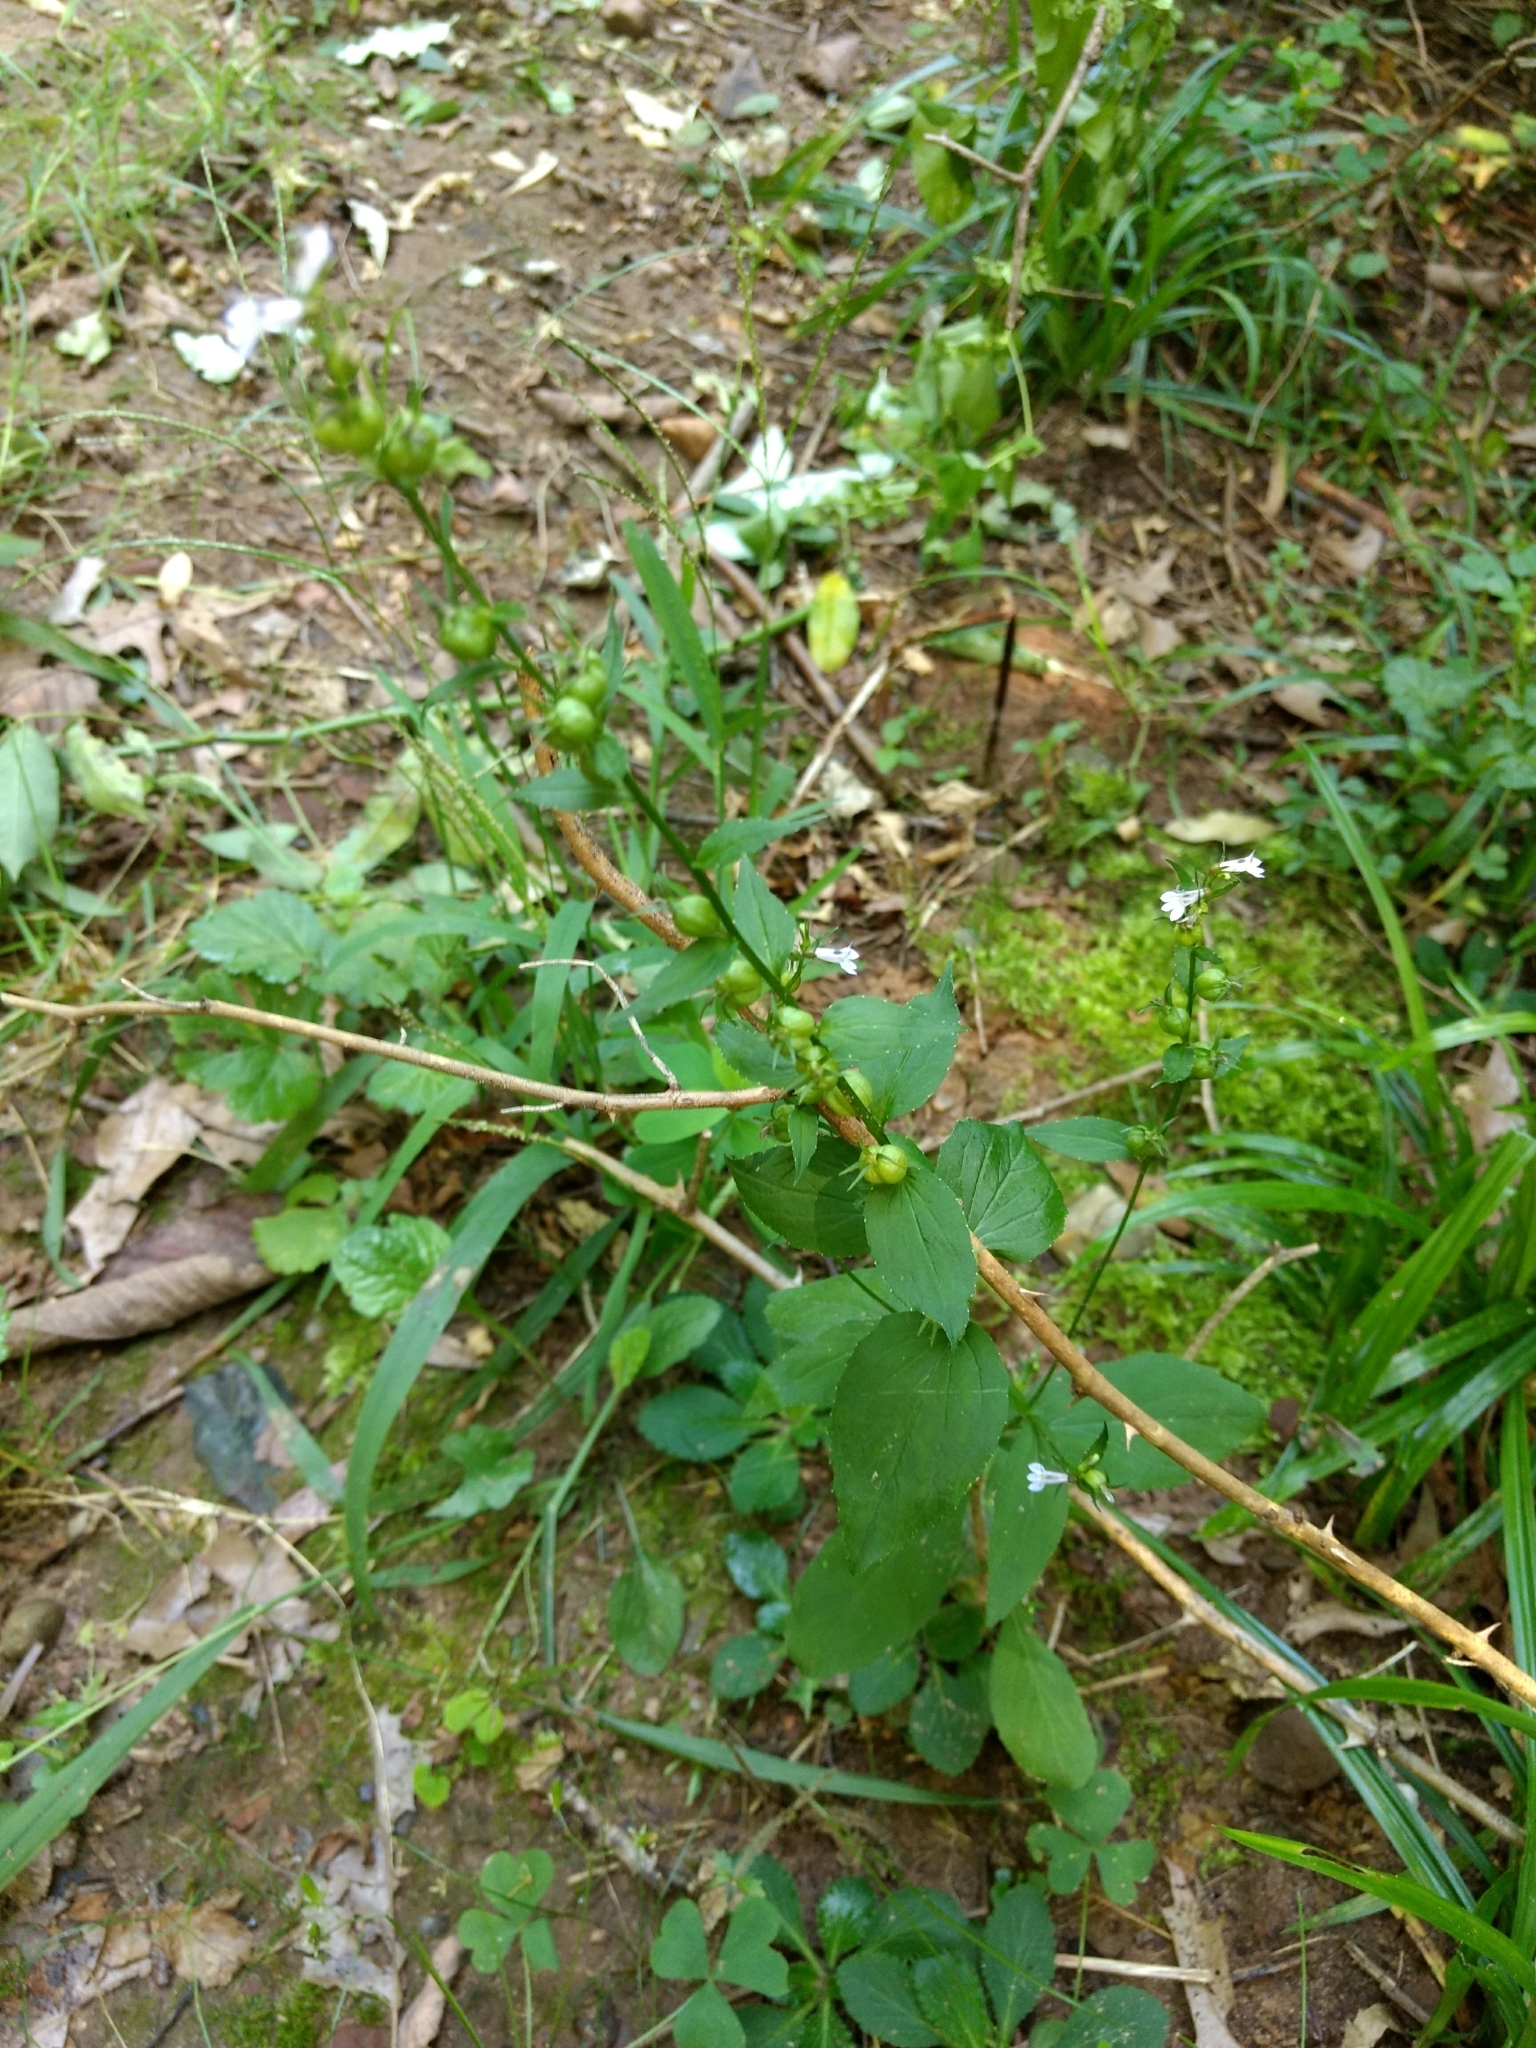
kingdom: Plantae
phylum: Tracheophyta
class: Magnoliopsida
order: Asterales
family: Campanulaceae
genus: Lobelia
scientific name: Lobelia inflata
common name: Indian tobacco
